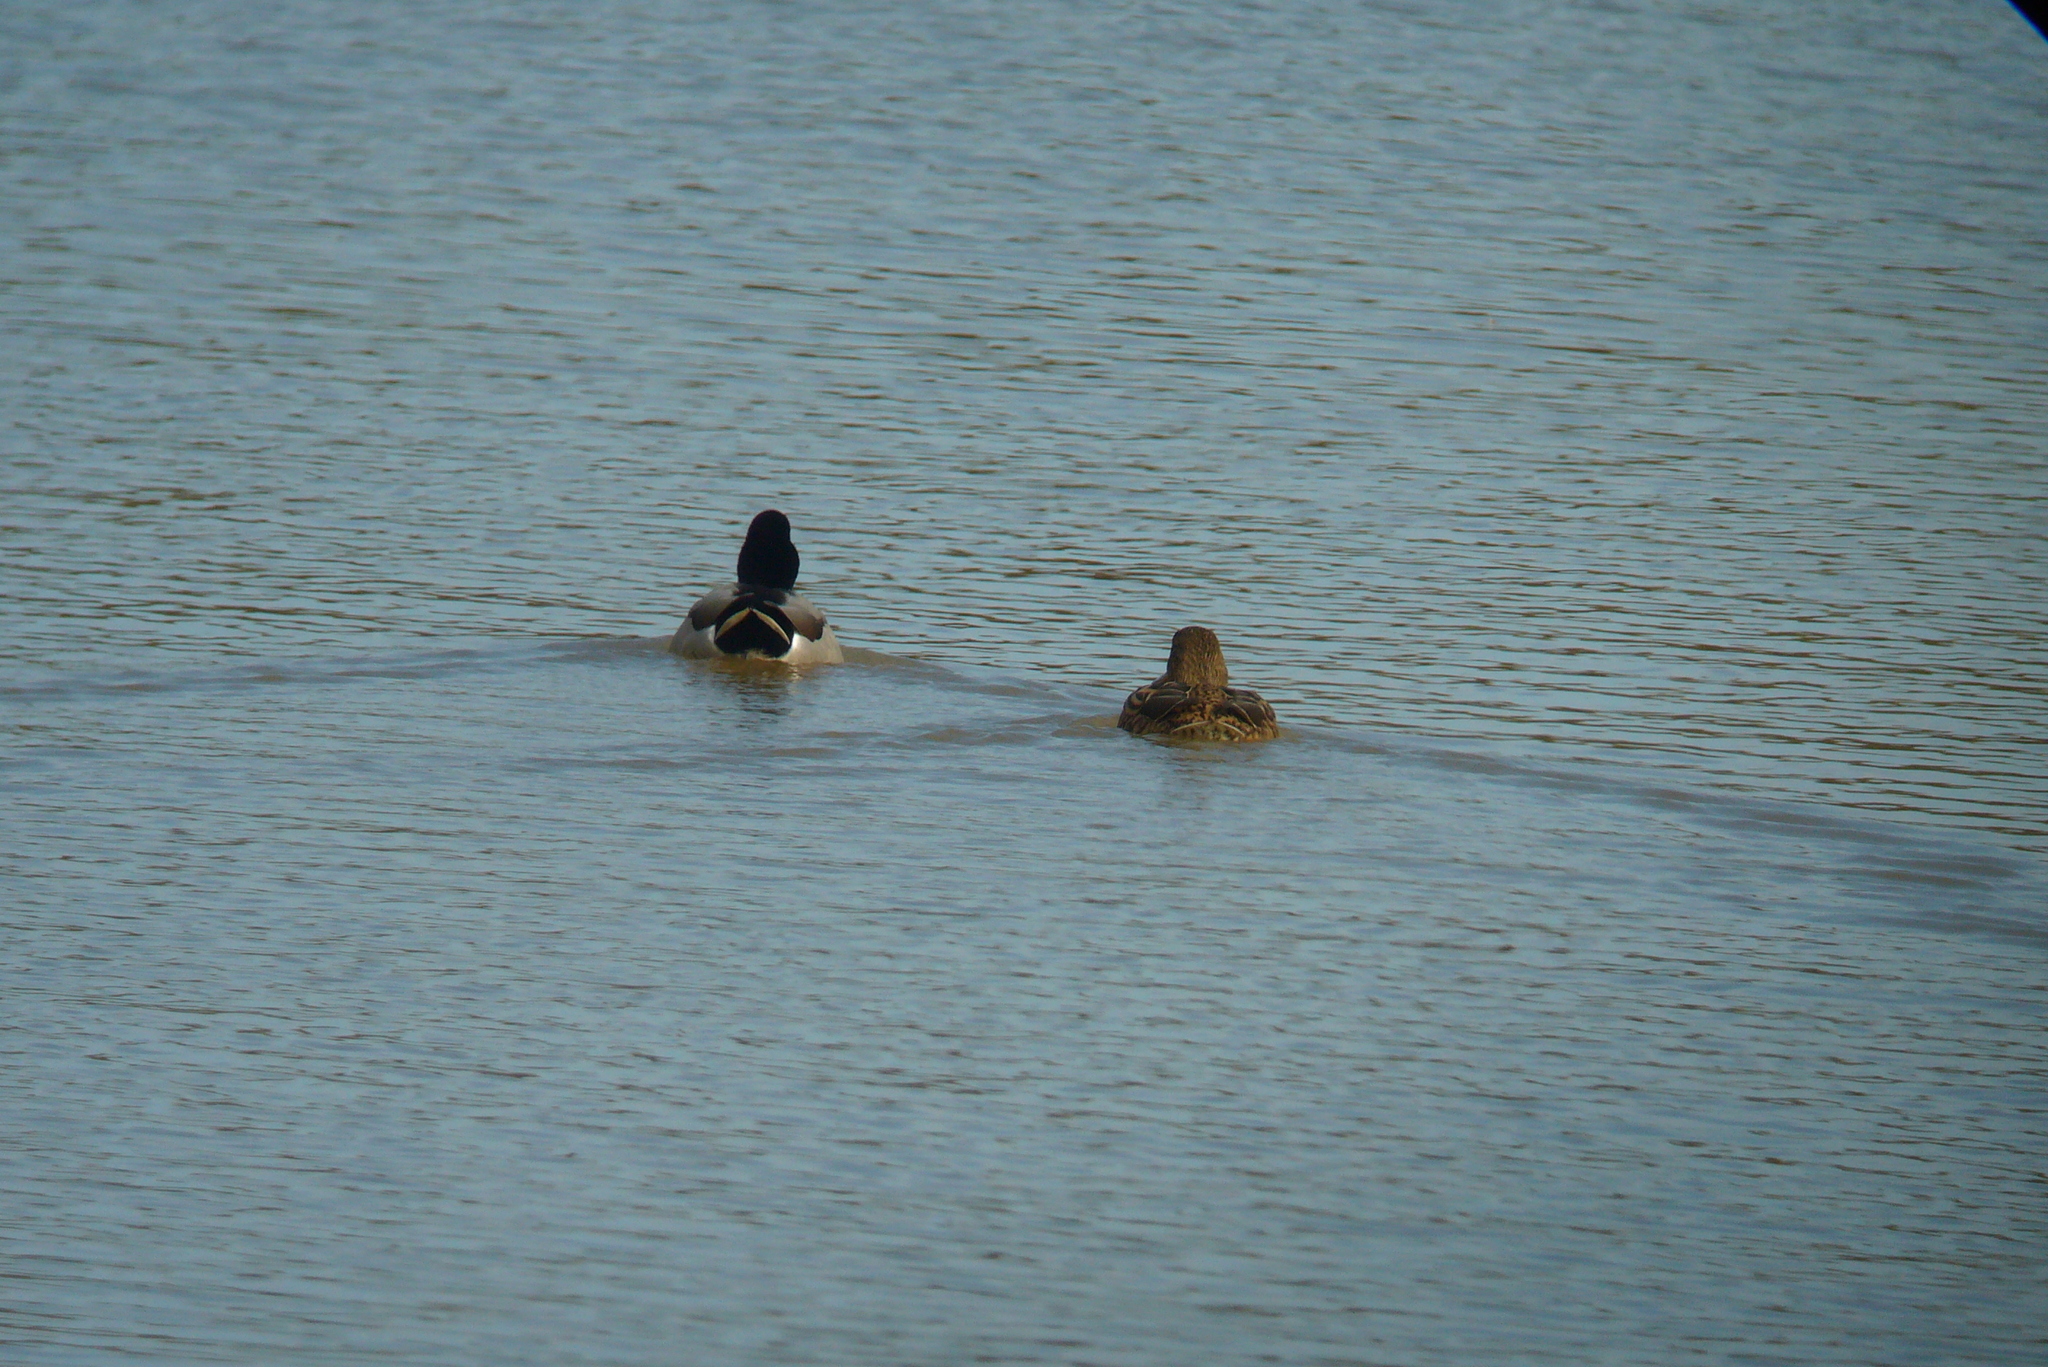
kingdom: Animalia
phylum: Chordata
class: Aves
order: Anseriformes
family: Anatidae
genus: Anas
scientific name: Anas platyrhynchos
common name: Mallard
